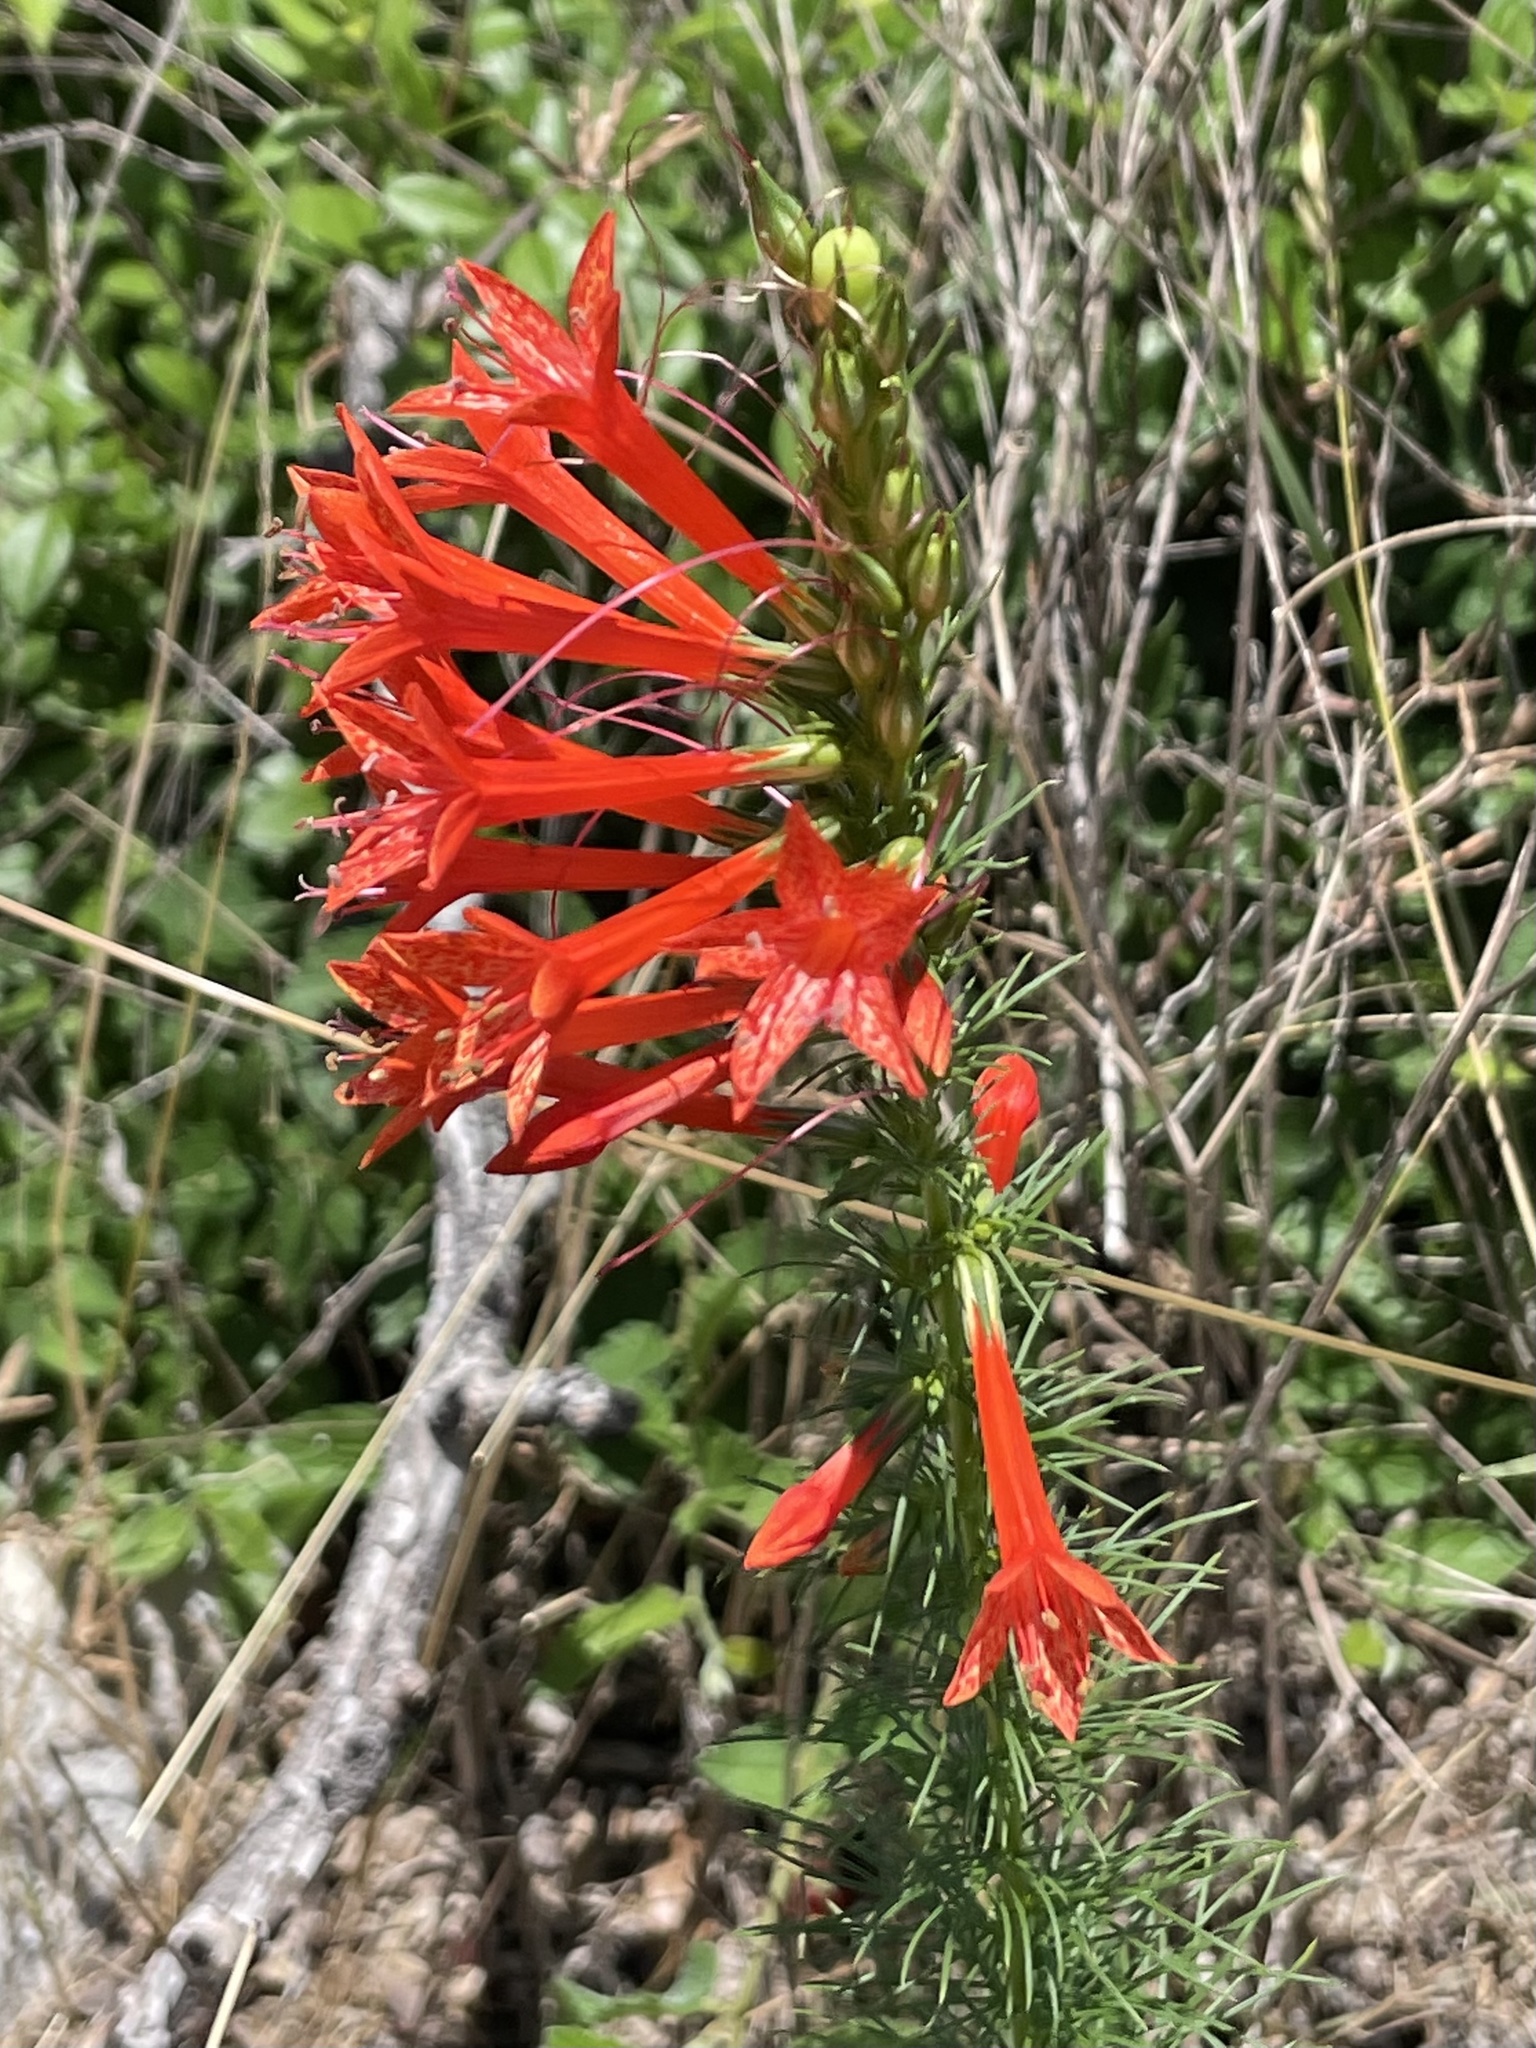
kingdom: Plantae
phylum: Tracheophyta
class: Magnoliopsida
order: Ericales
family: Polemoniaceae
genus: Ipomopsis
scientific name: Ipomopsis rubra
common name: Skyrocket
